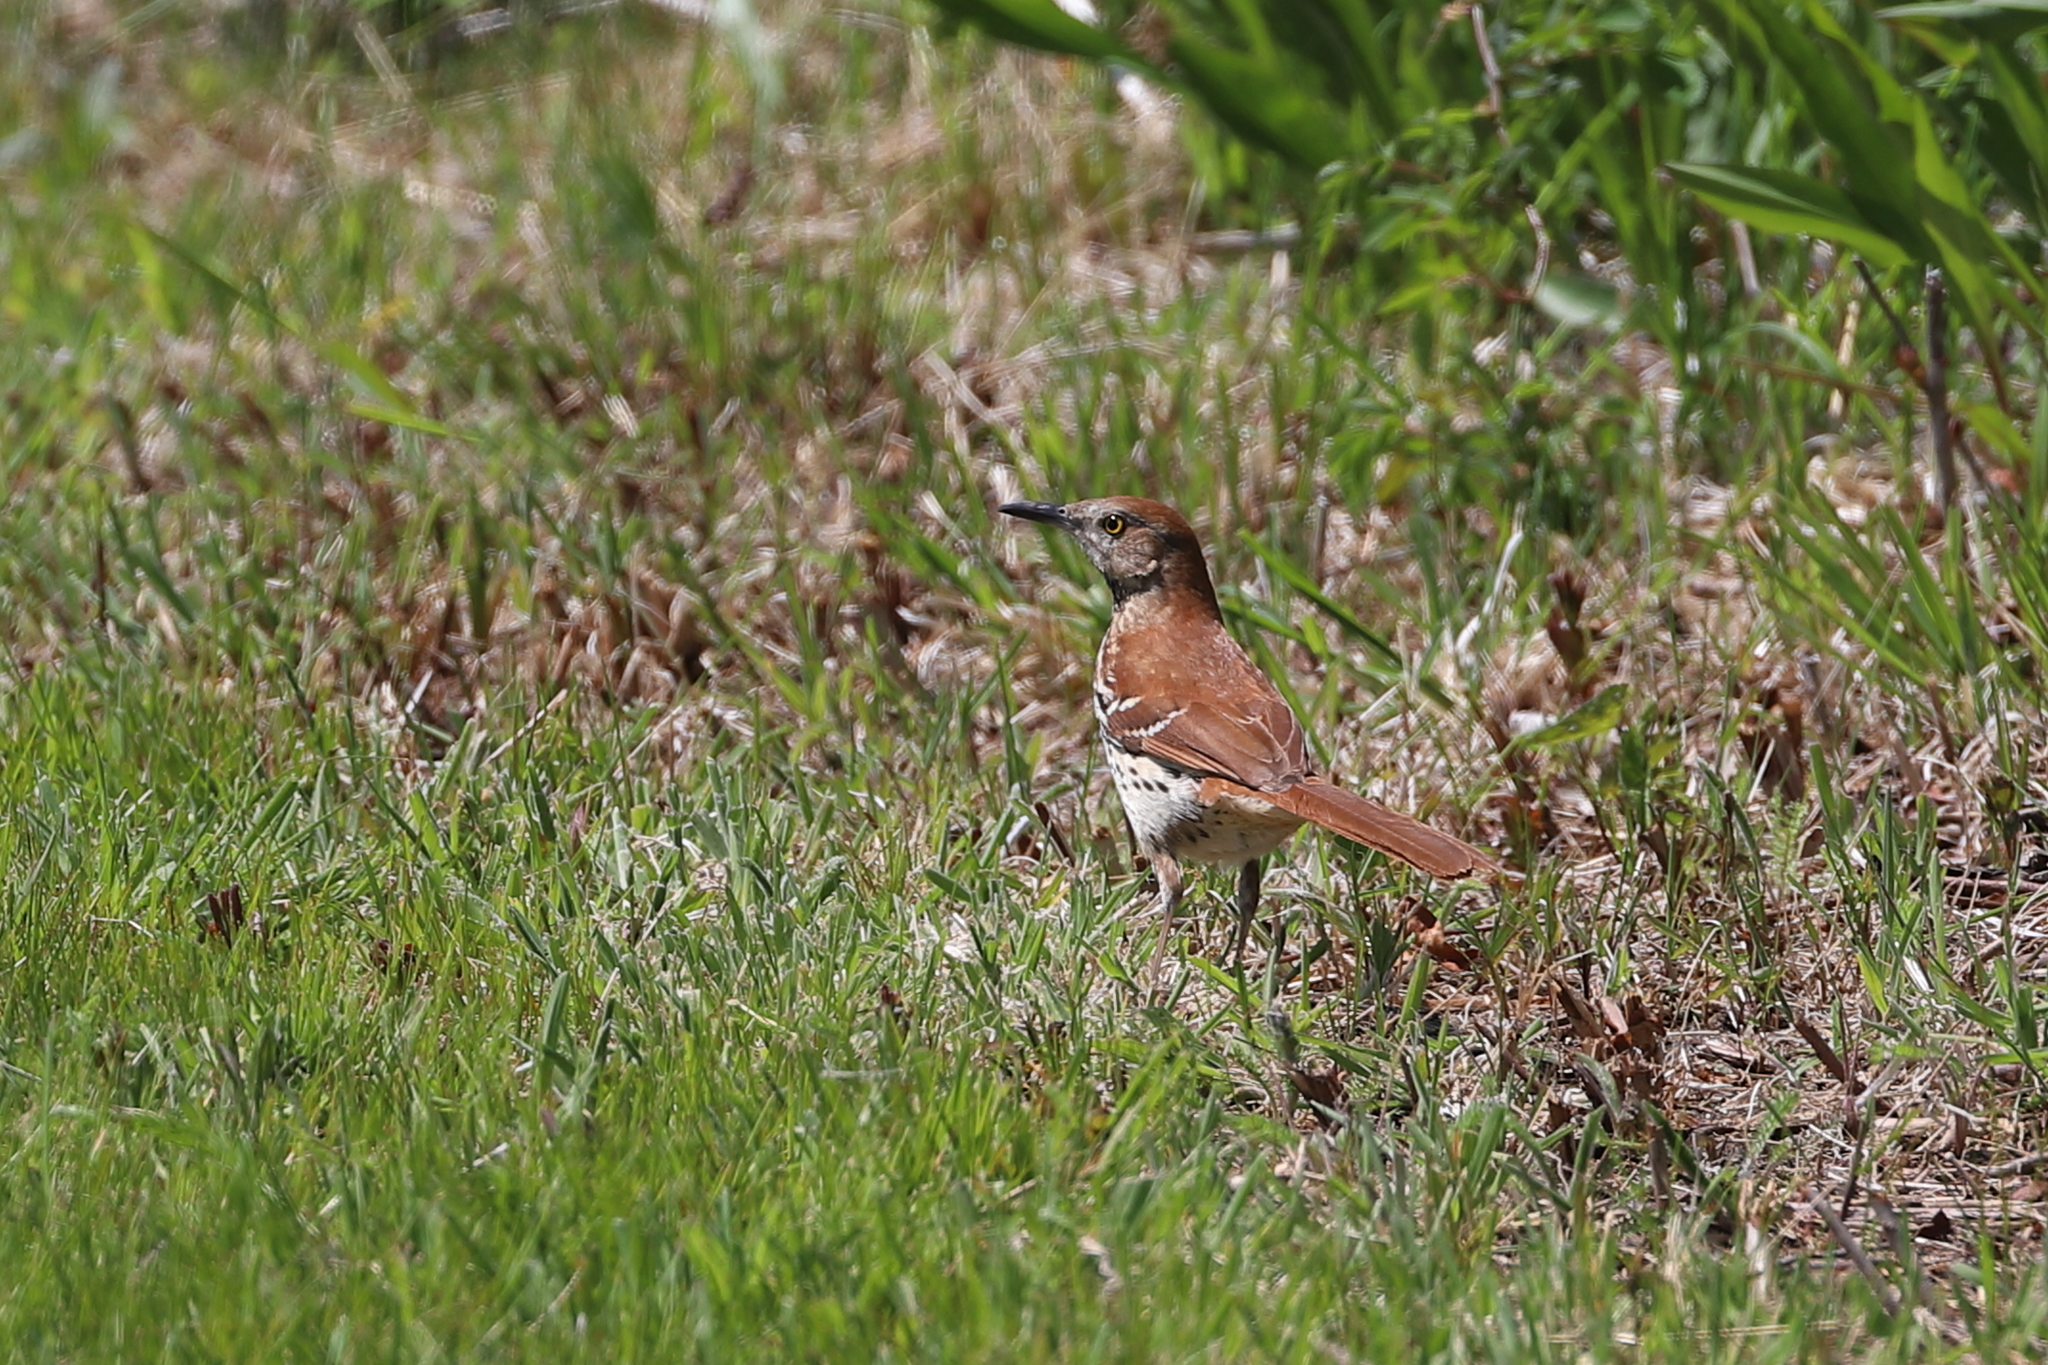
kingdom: Animalia
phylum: Chordata
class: Aves
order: Passeriformes
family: Mimidae
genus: Toxostoma
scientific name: Toxostoma rufum
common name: Brown thrasher
